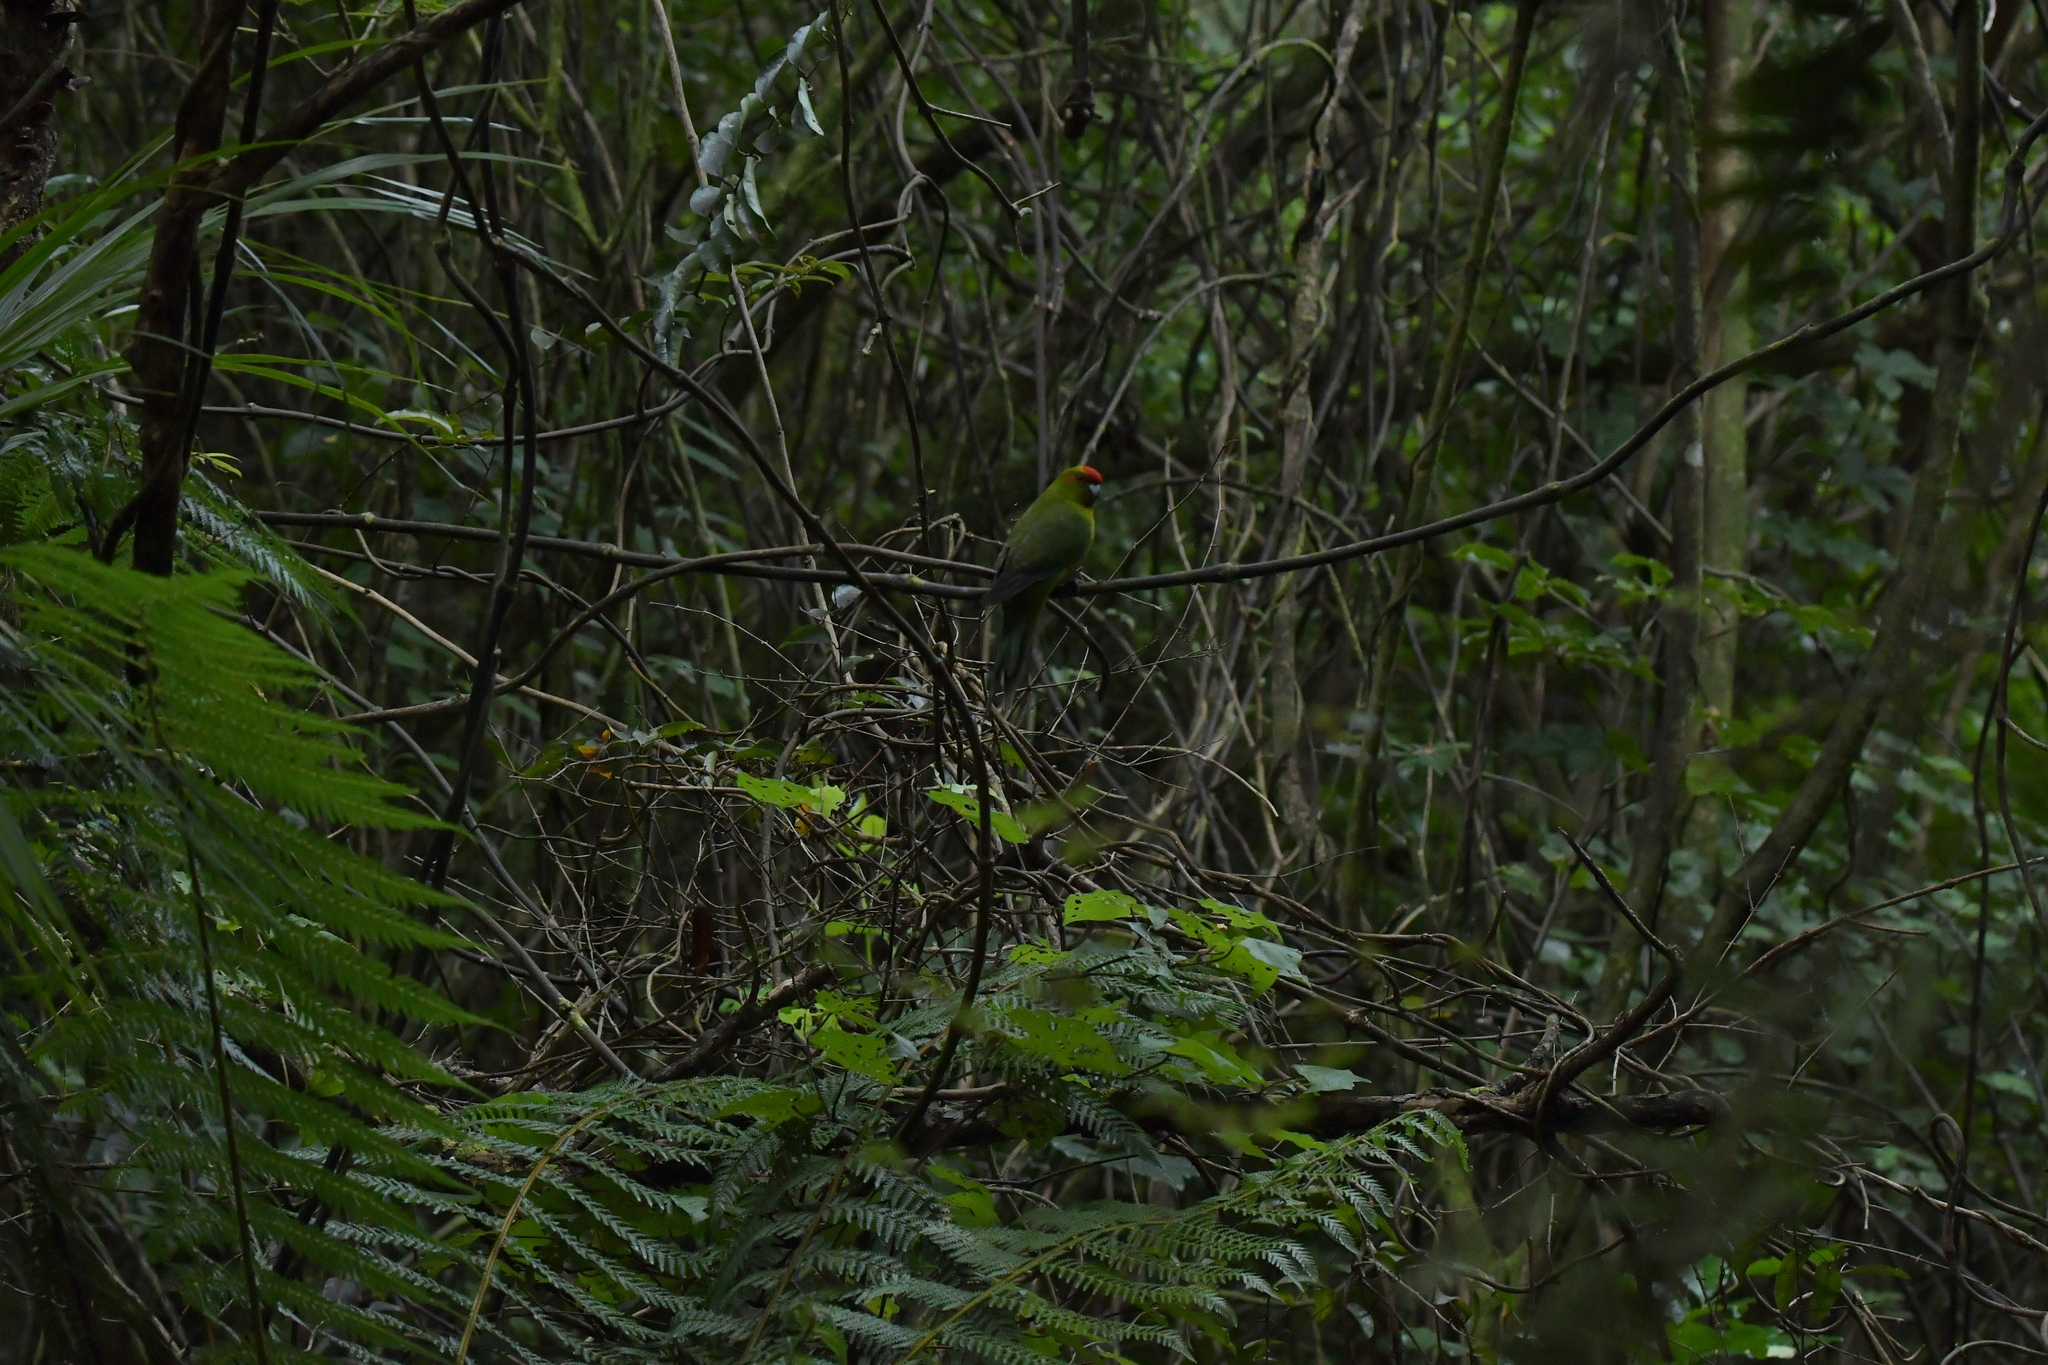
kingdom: Animalia
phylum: Chordata
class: Aves
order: Psittaciformes
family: Psittacidae
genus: Cyanoramphus
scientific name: Cyanoramphus novaezelandiae
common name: Red-fronted parakeet
